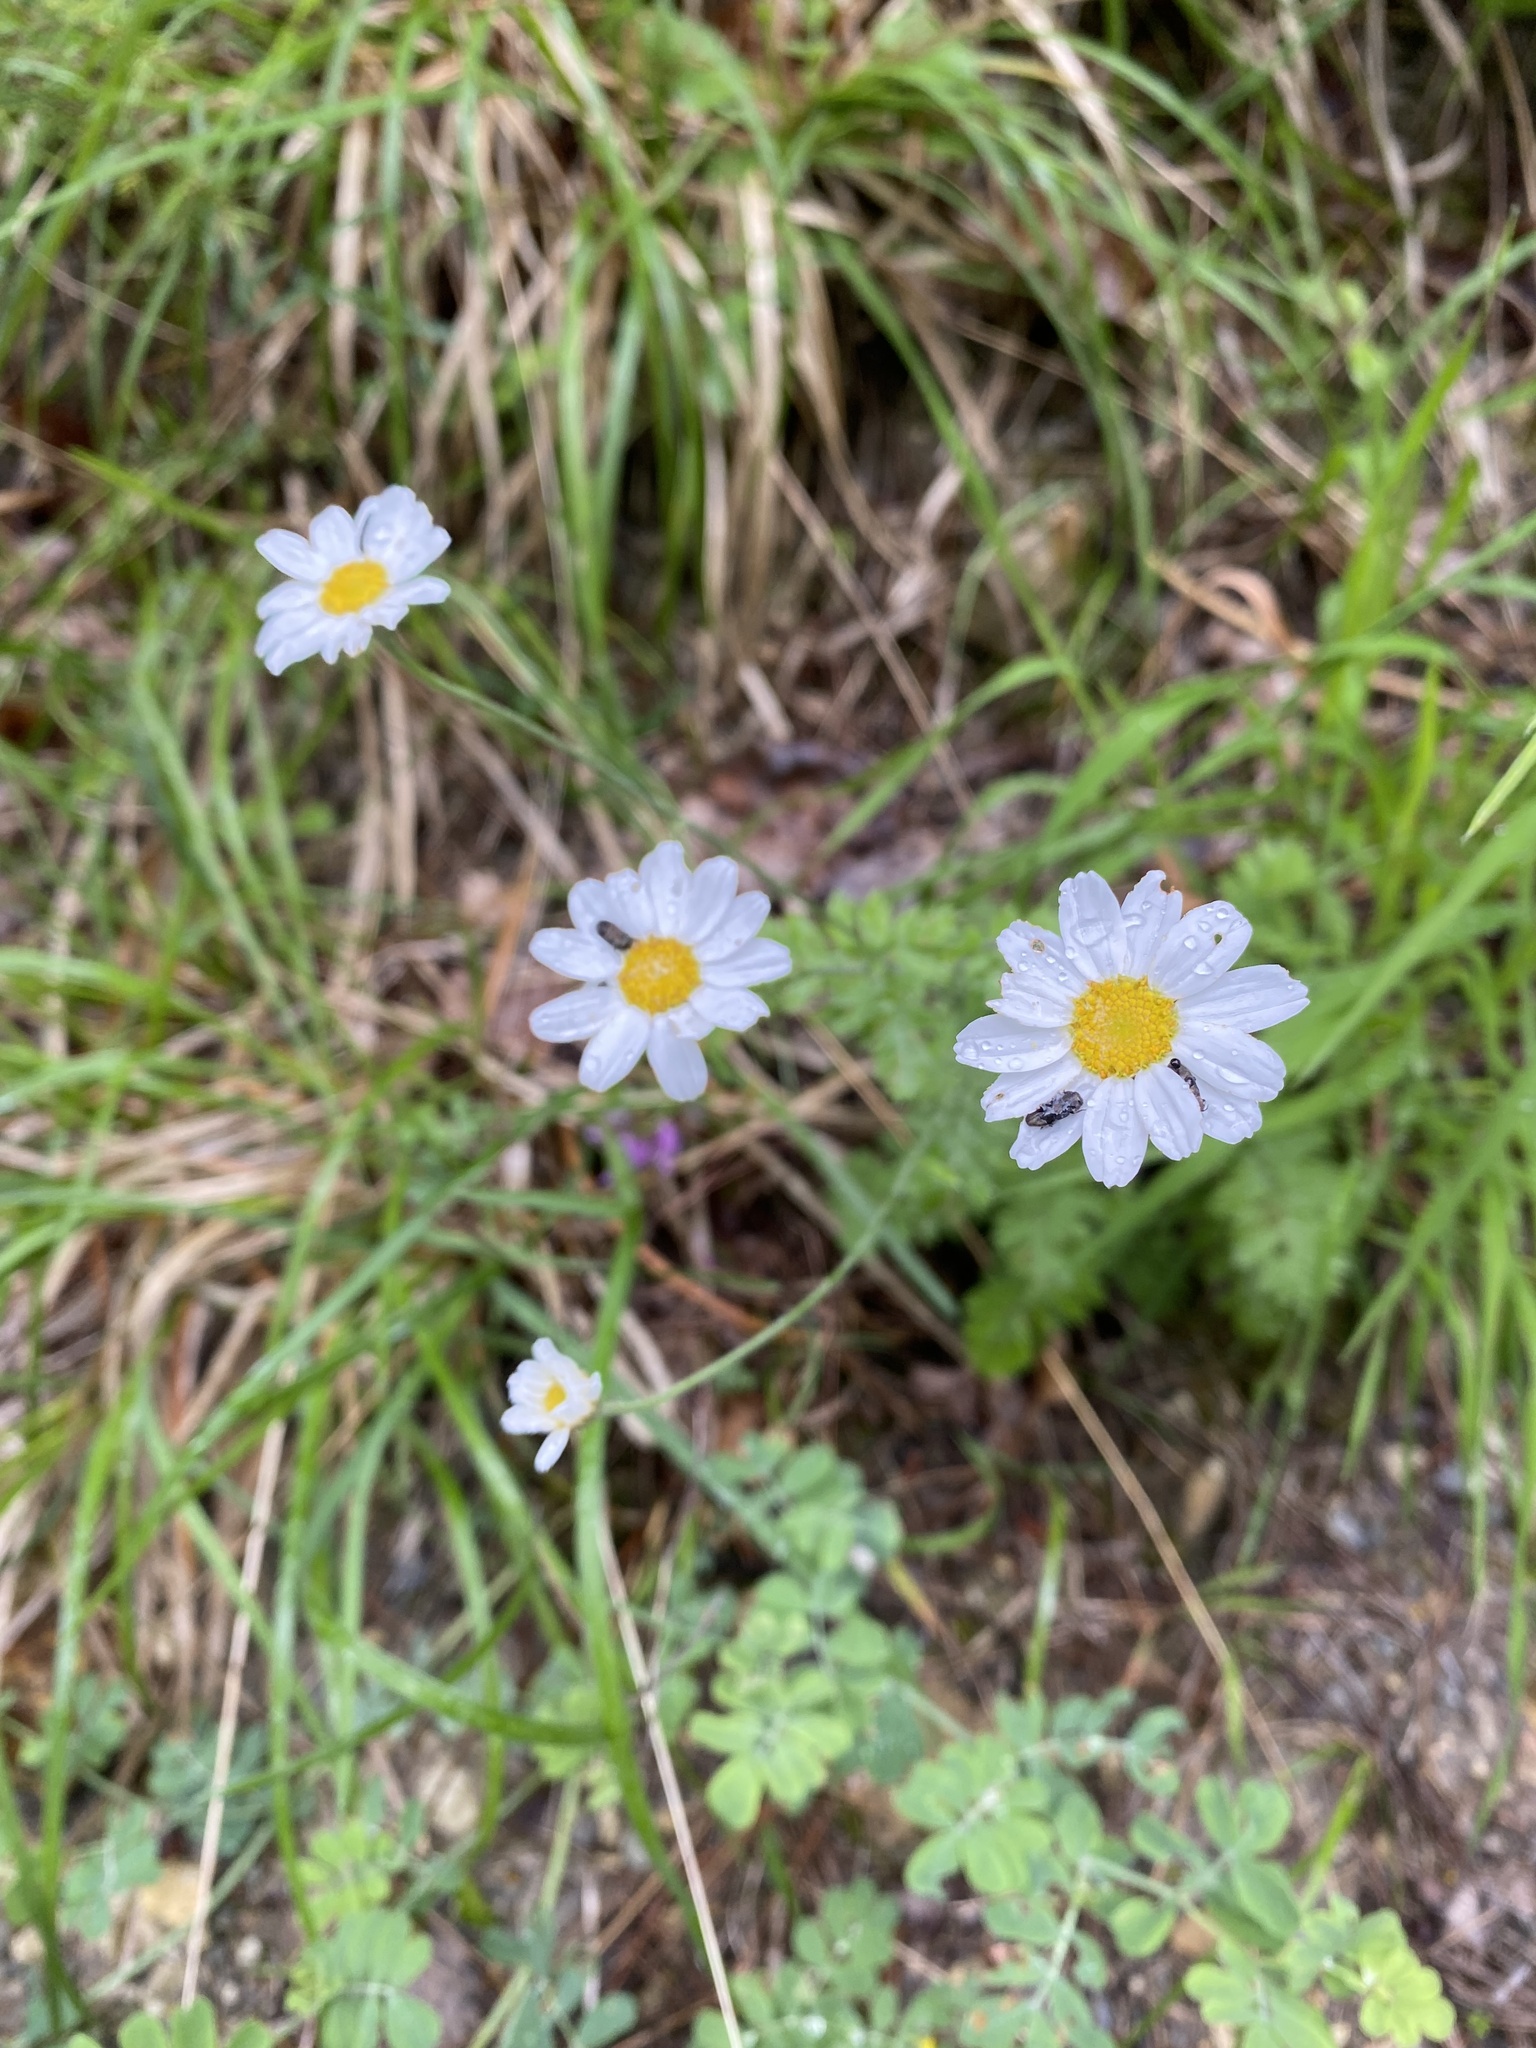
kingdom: Plantae
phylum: Tracheophyta
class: Magnoliopsida
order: Asterales
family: Asteraceae
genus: Tanacetum
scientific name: Tanacetum poteriifolium
